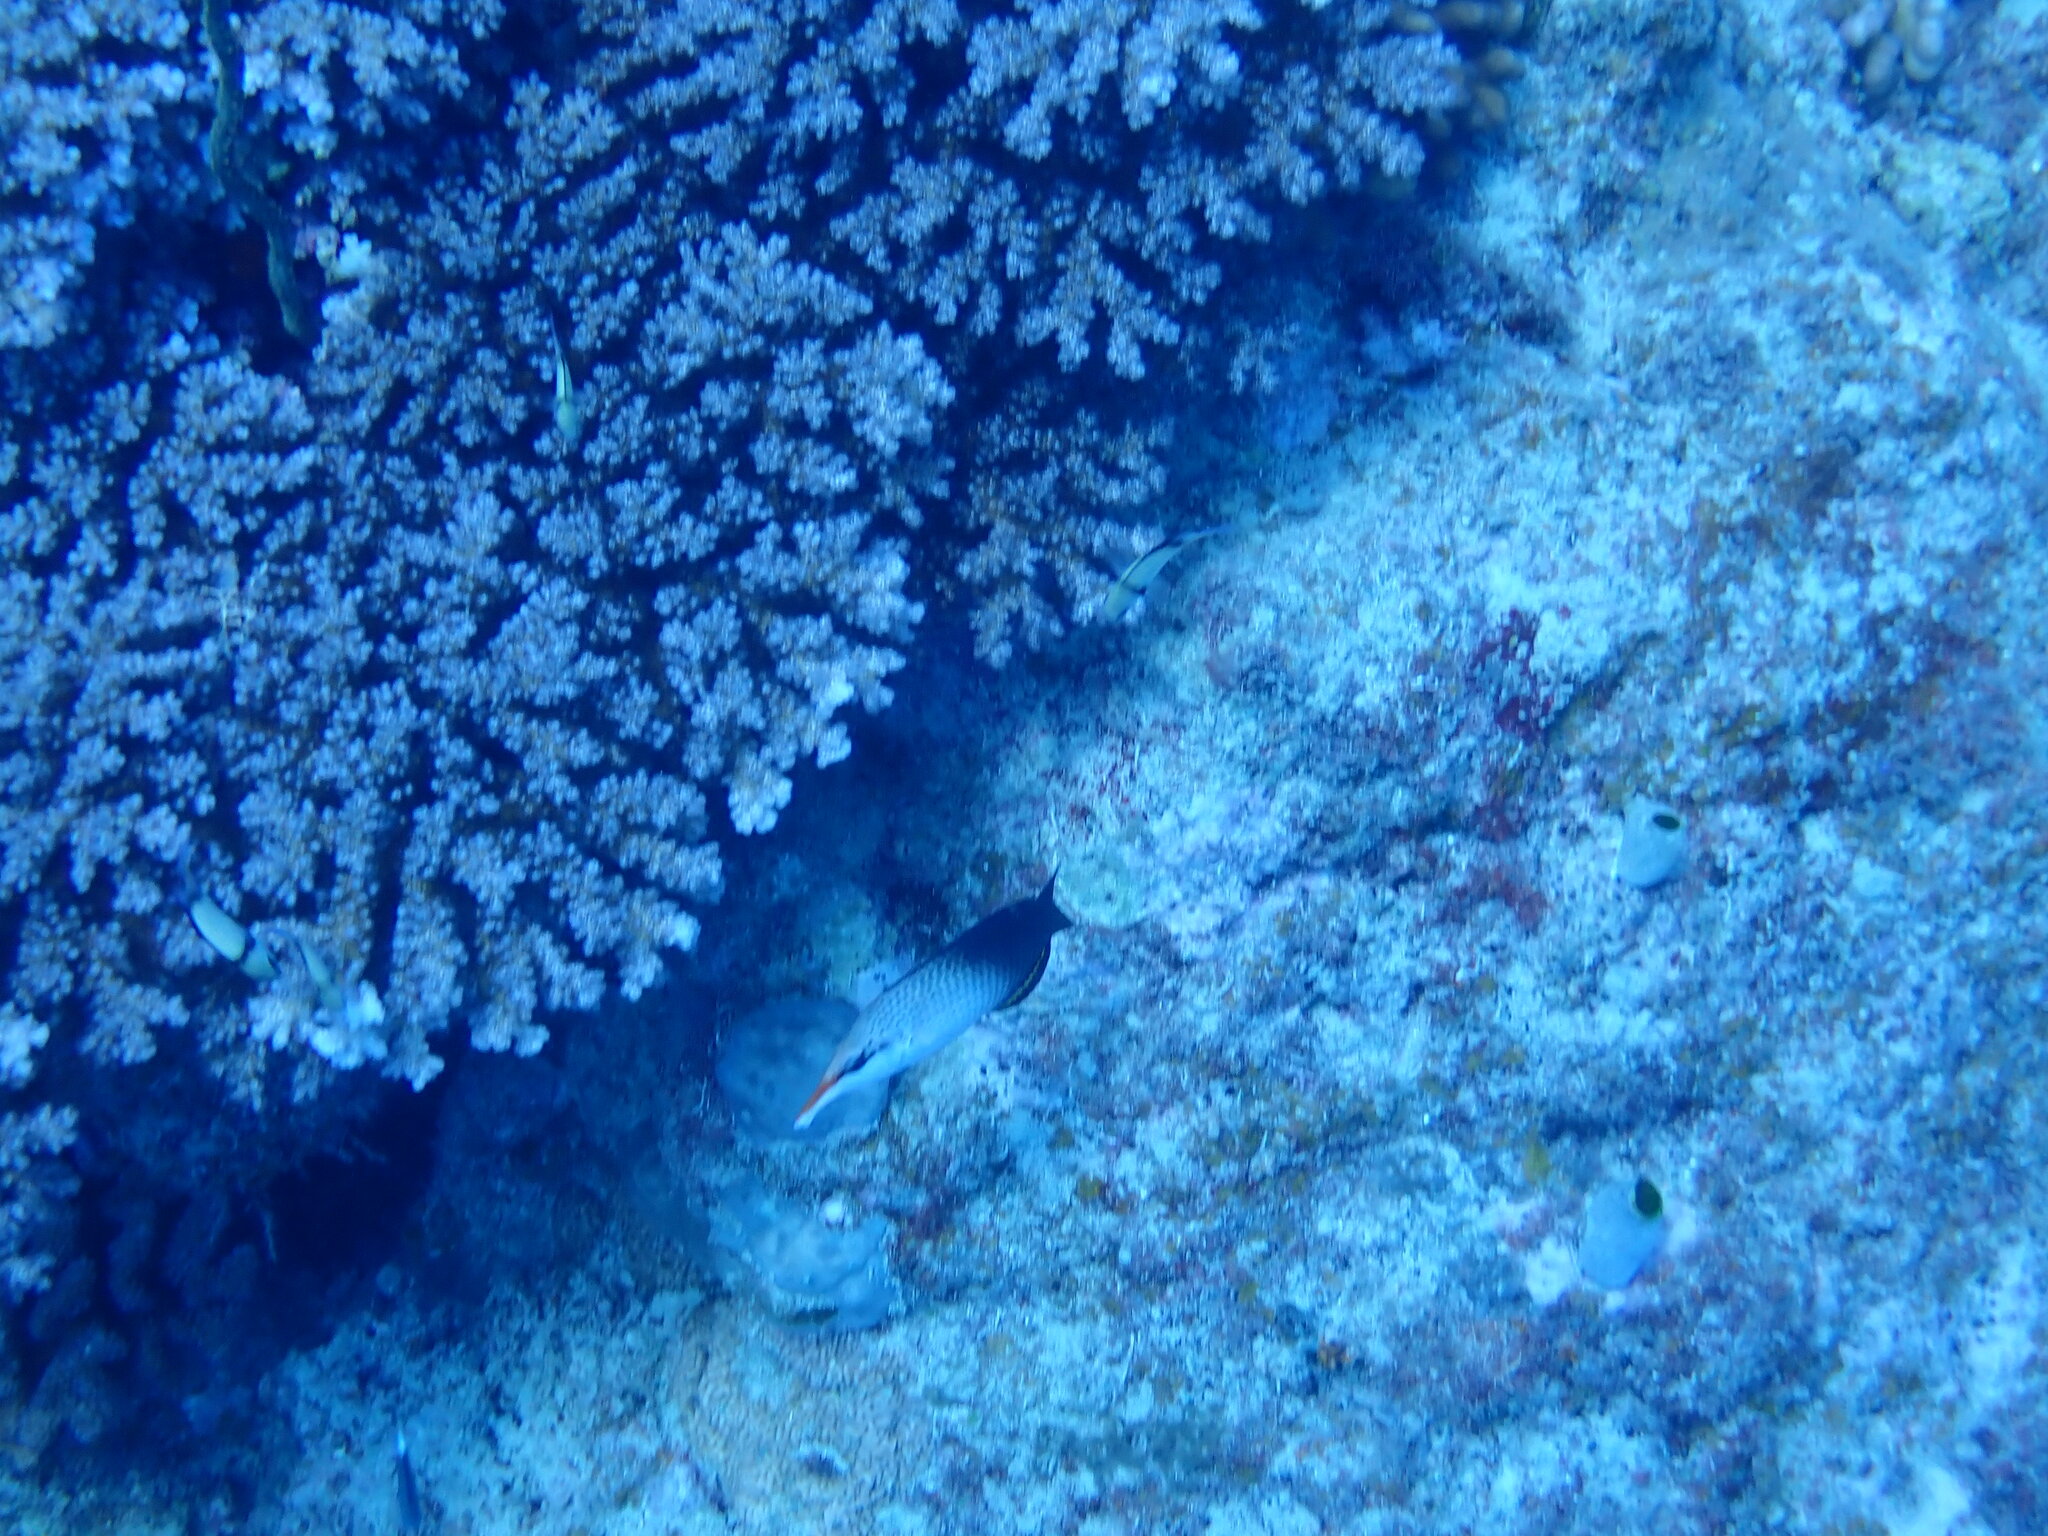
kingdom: Animalia
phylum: Chordata
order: Perciformes
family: Labridae
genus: Gomphosus
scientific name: Gomphosus varius
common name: Bird wrasse
